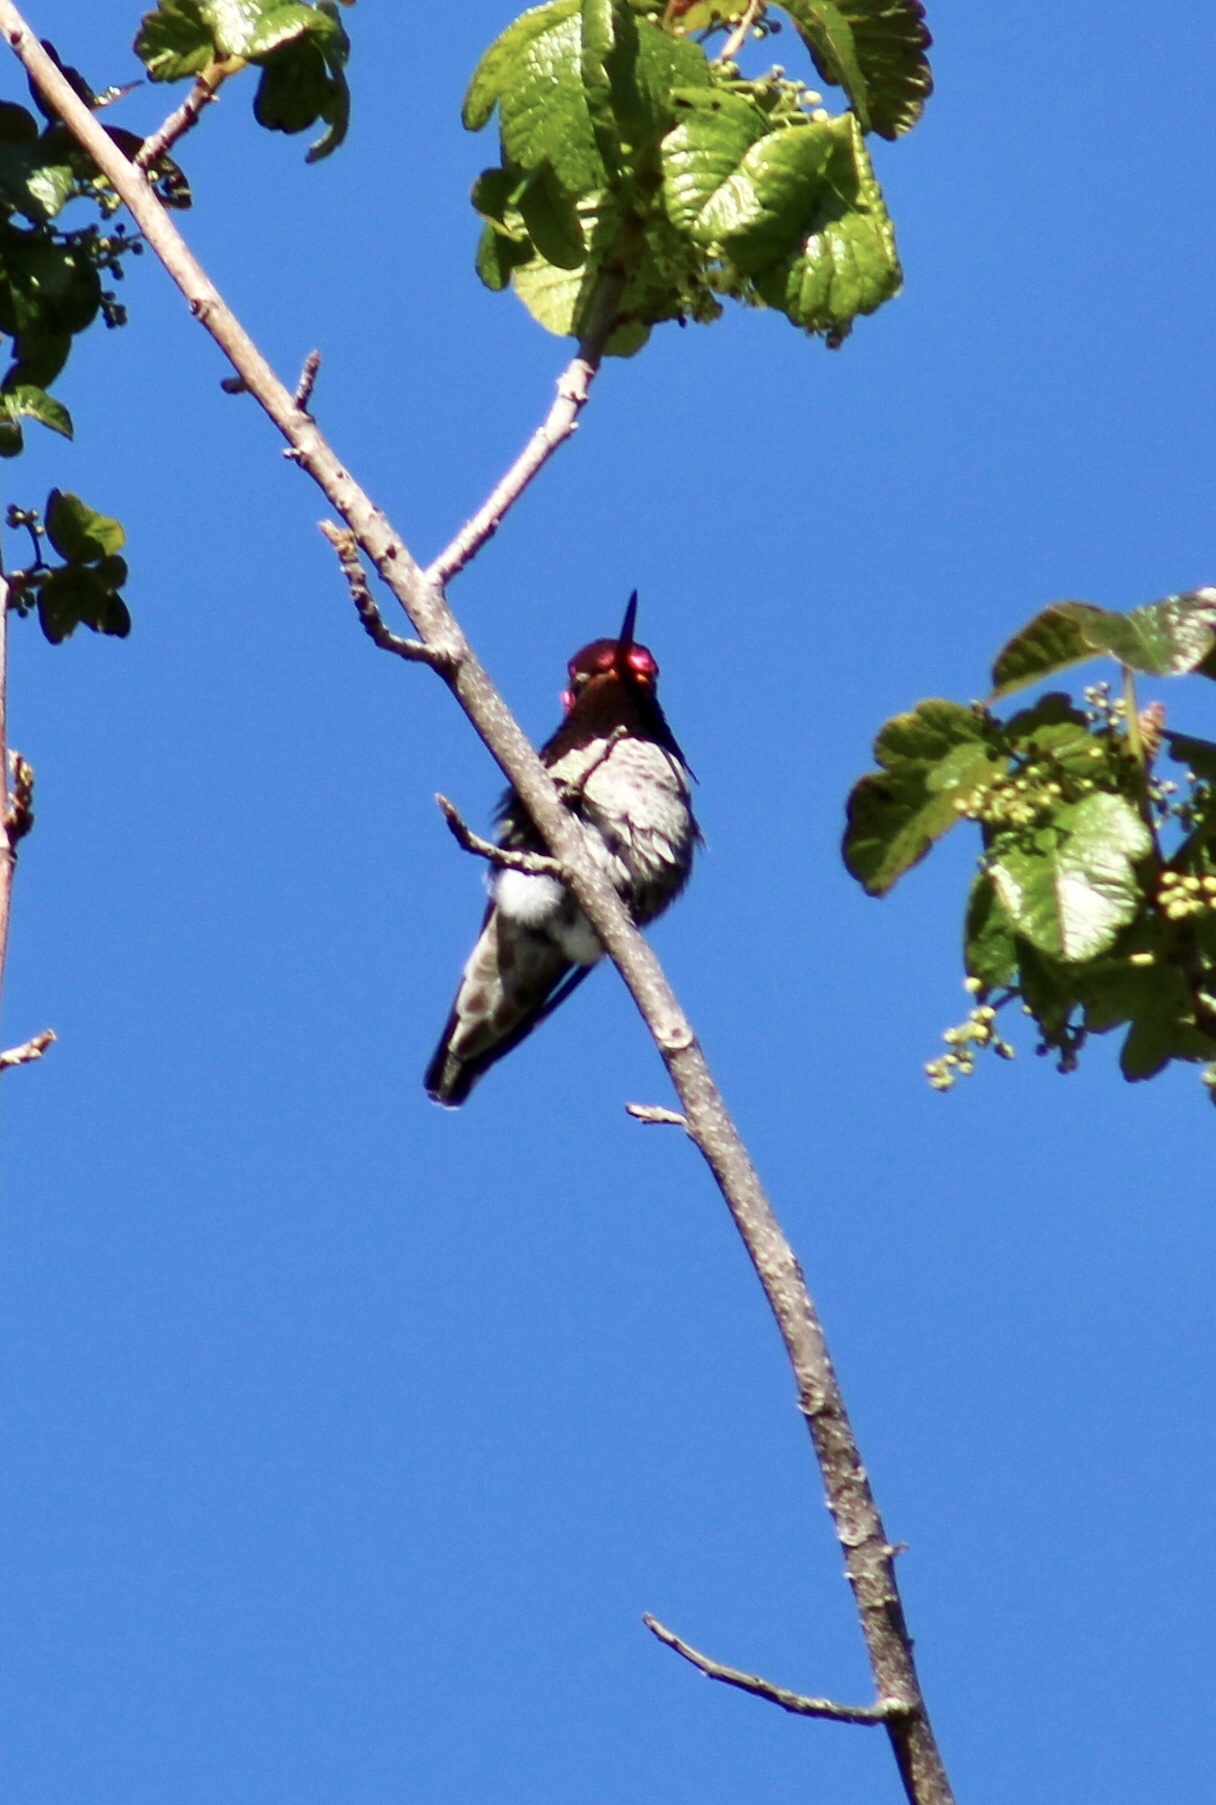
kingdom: Animalia
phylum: Chordata
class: Aves
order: Apodiformes
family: Trochilidae
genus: Calypte
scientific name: Calypte anna
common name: Anna's hummingbird
